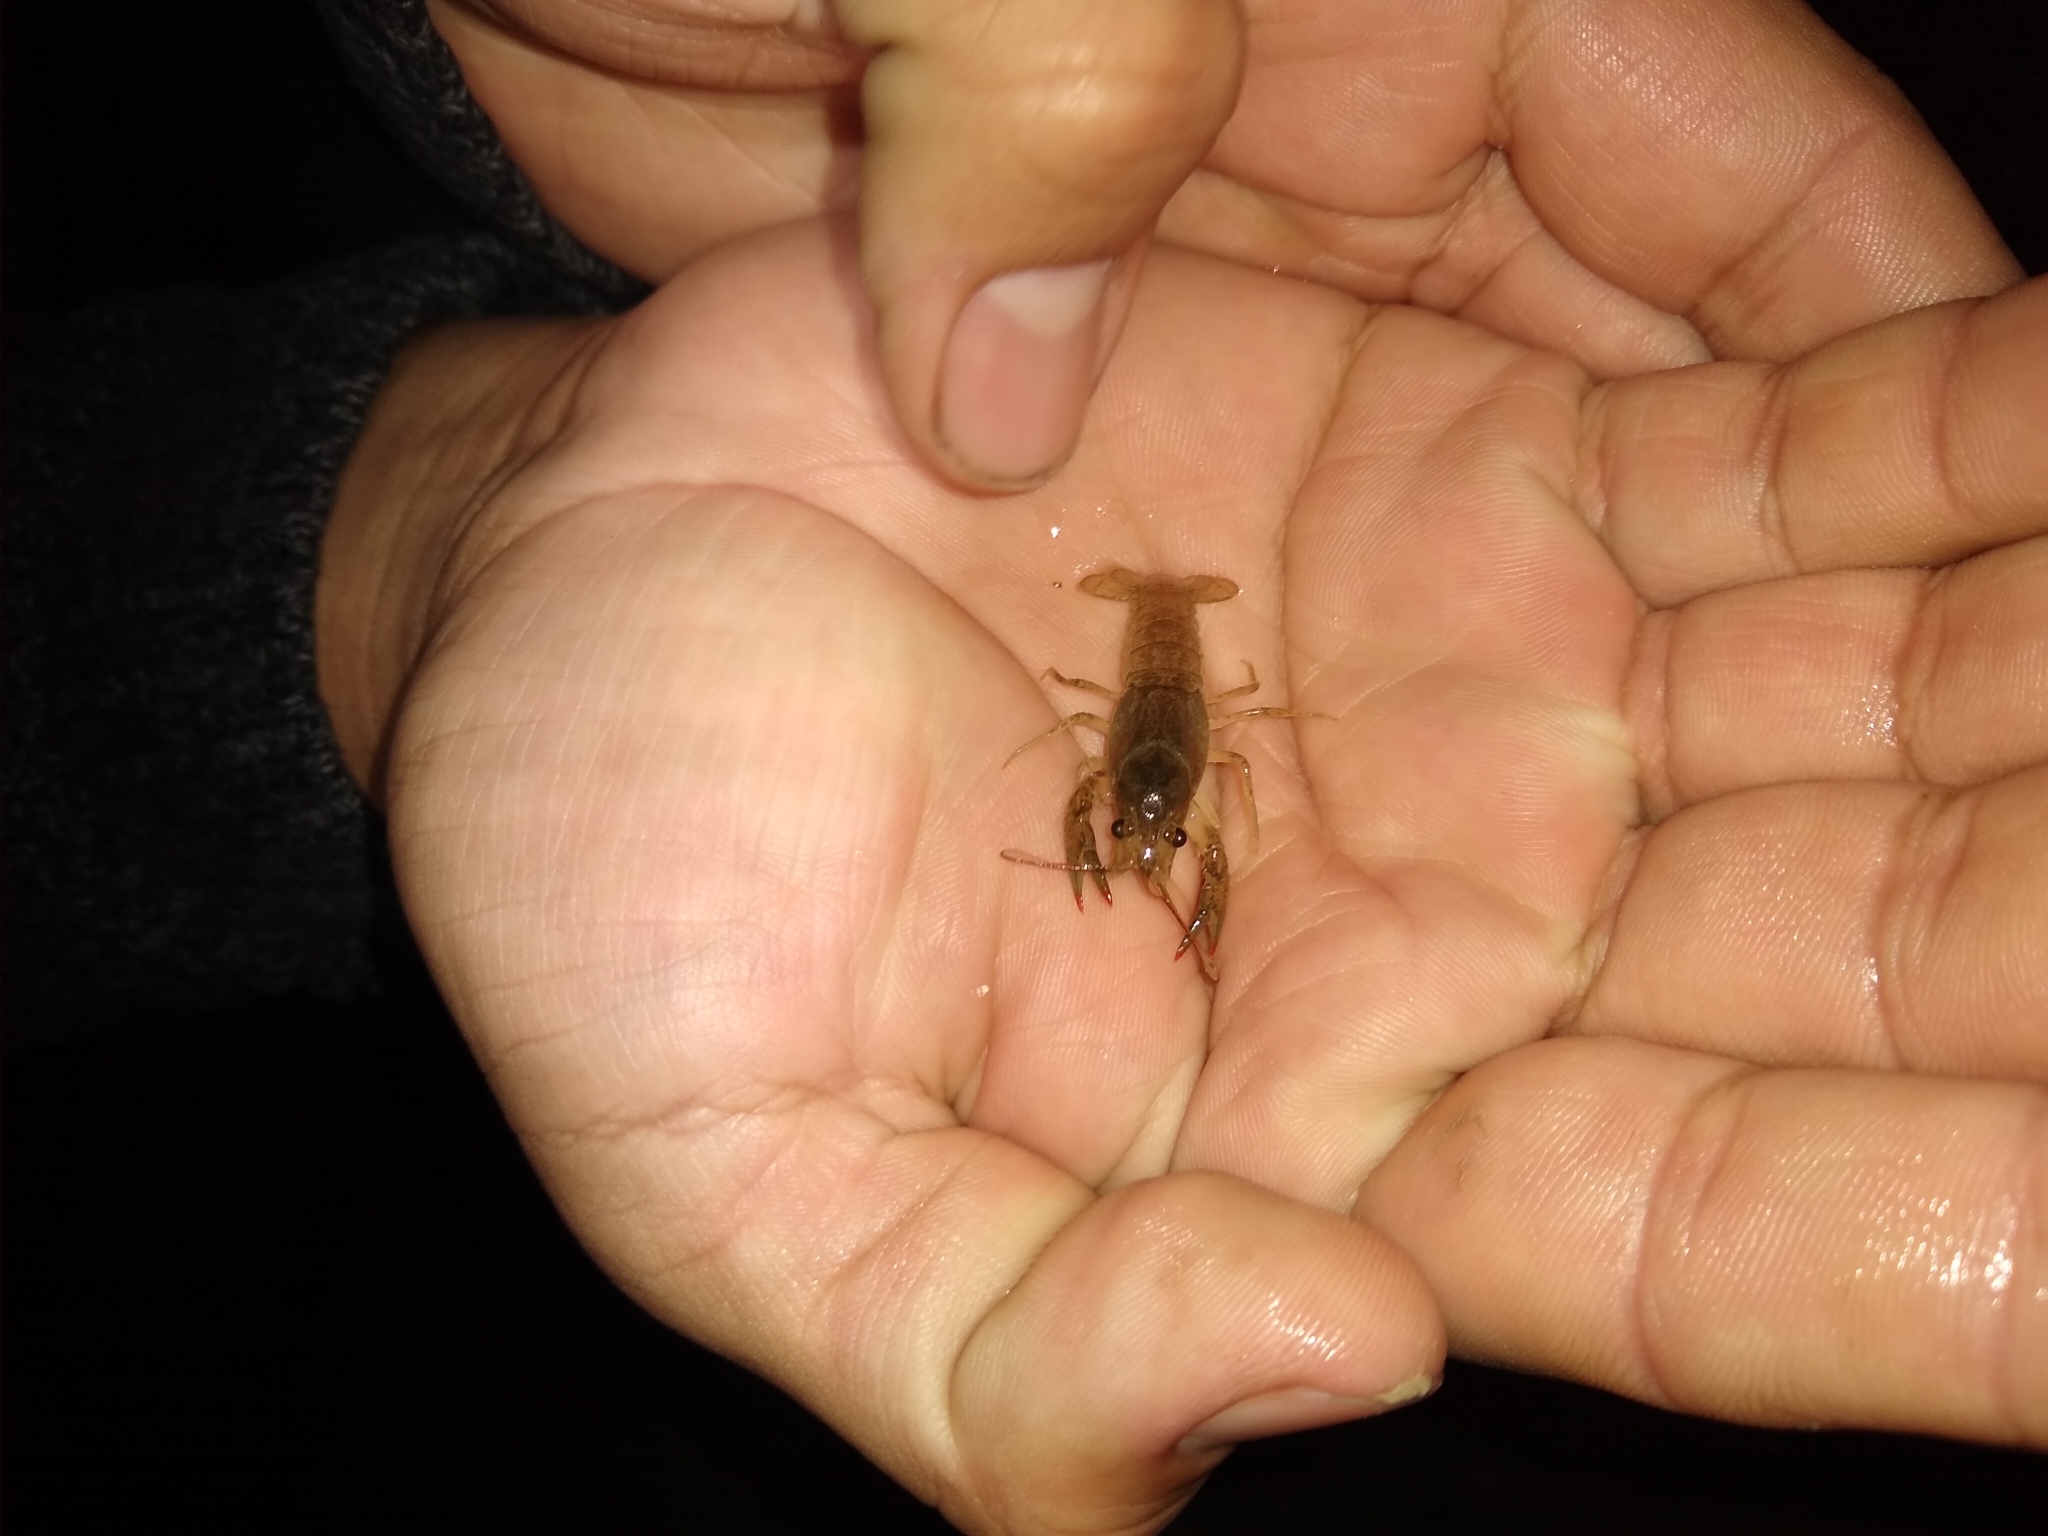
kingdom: Animalia
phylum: Arthropoda
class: Malacostraca
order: Decapoda
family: Cambaridae
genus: Faxonius
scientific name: Faxonius virilis
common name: Virile crayfish
